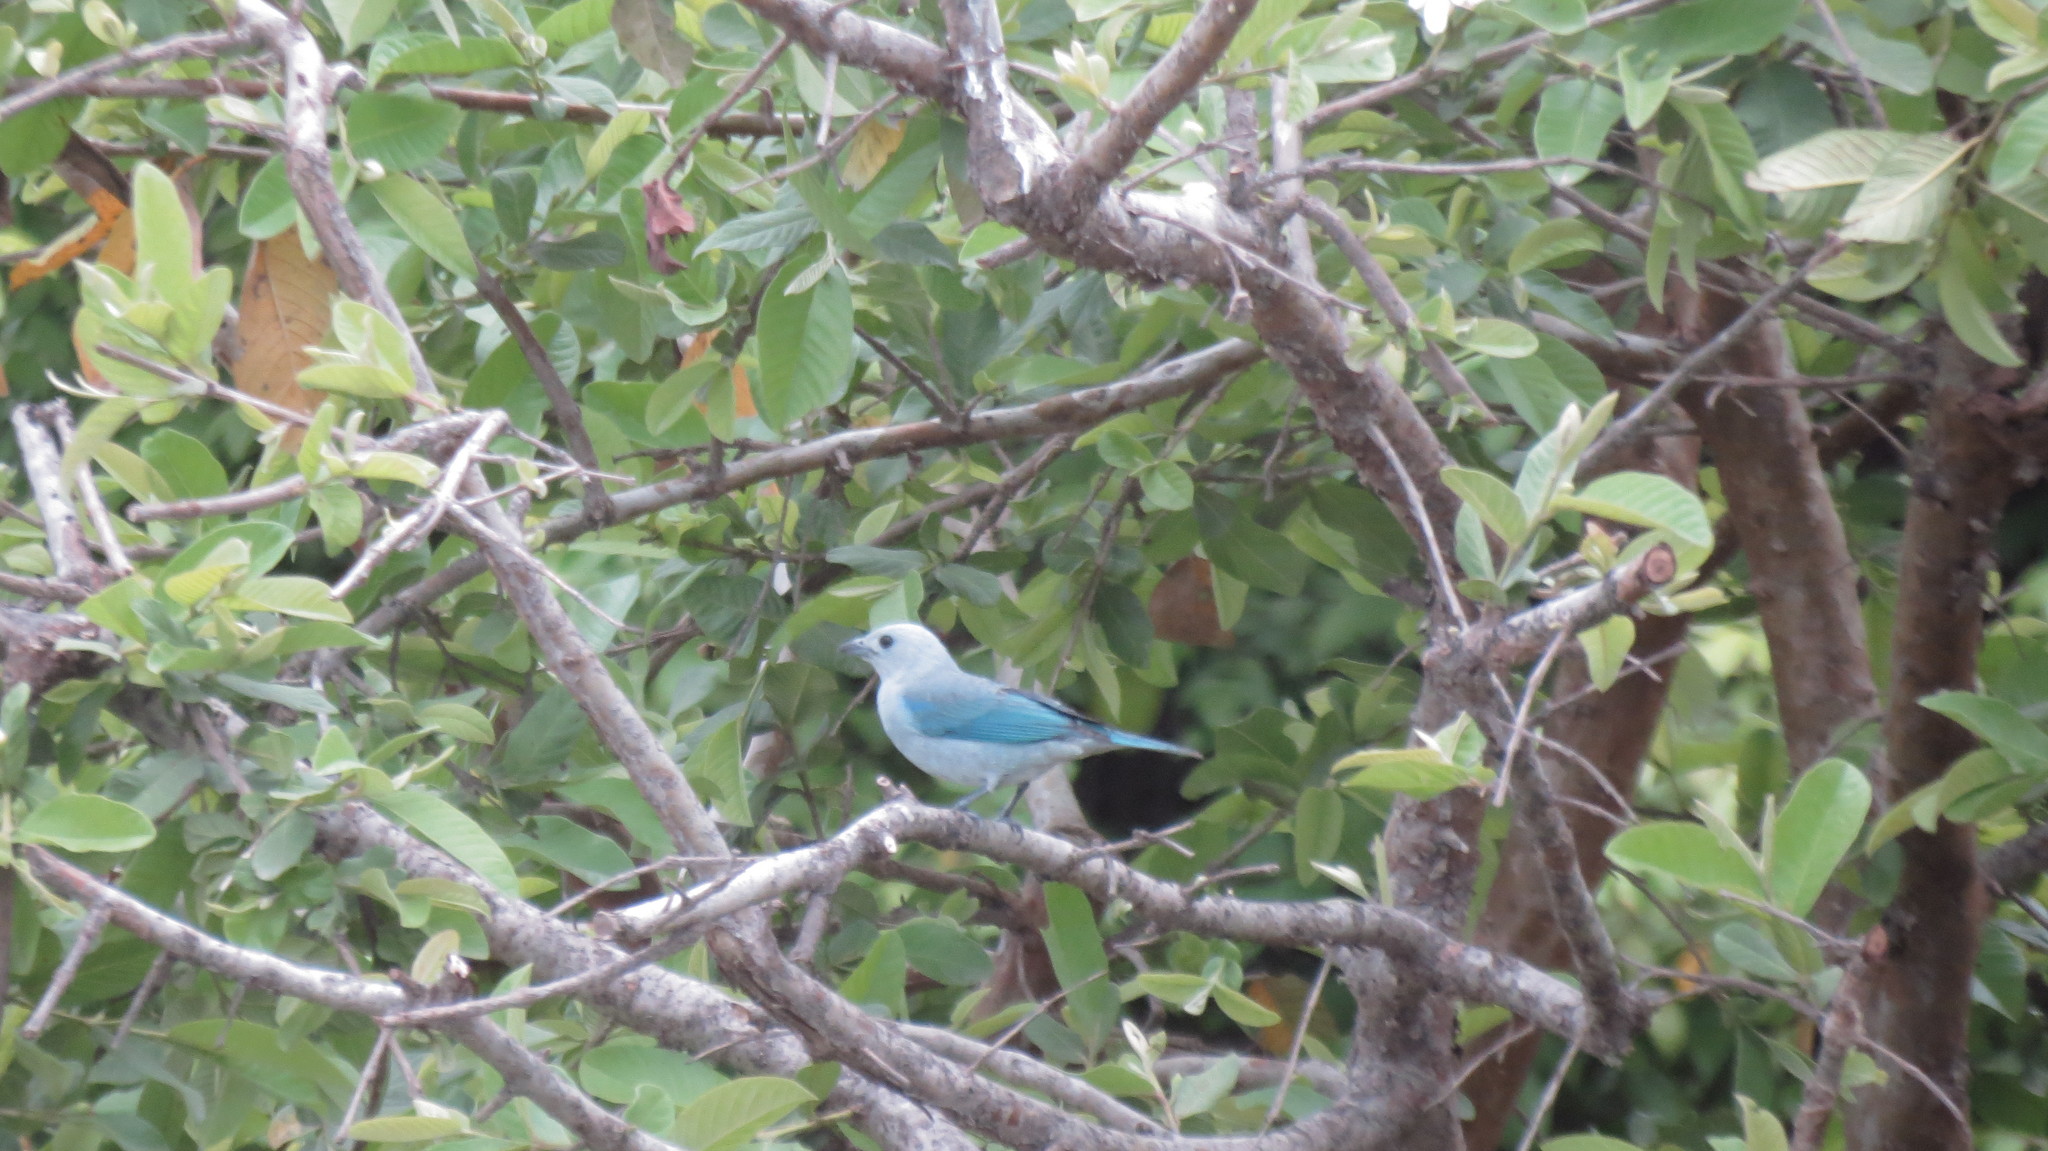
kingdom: Animalia
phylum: Chordata
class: Aves
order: Passeriformes
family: Thraupidae
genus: Thraupis
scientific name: Thraupis episcopus
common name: Blue-grey tanager
